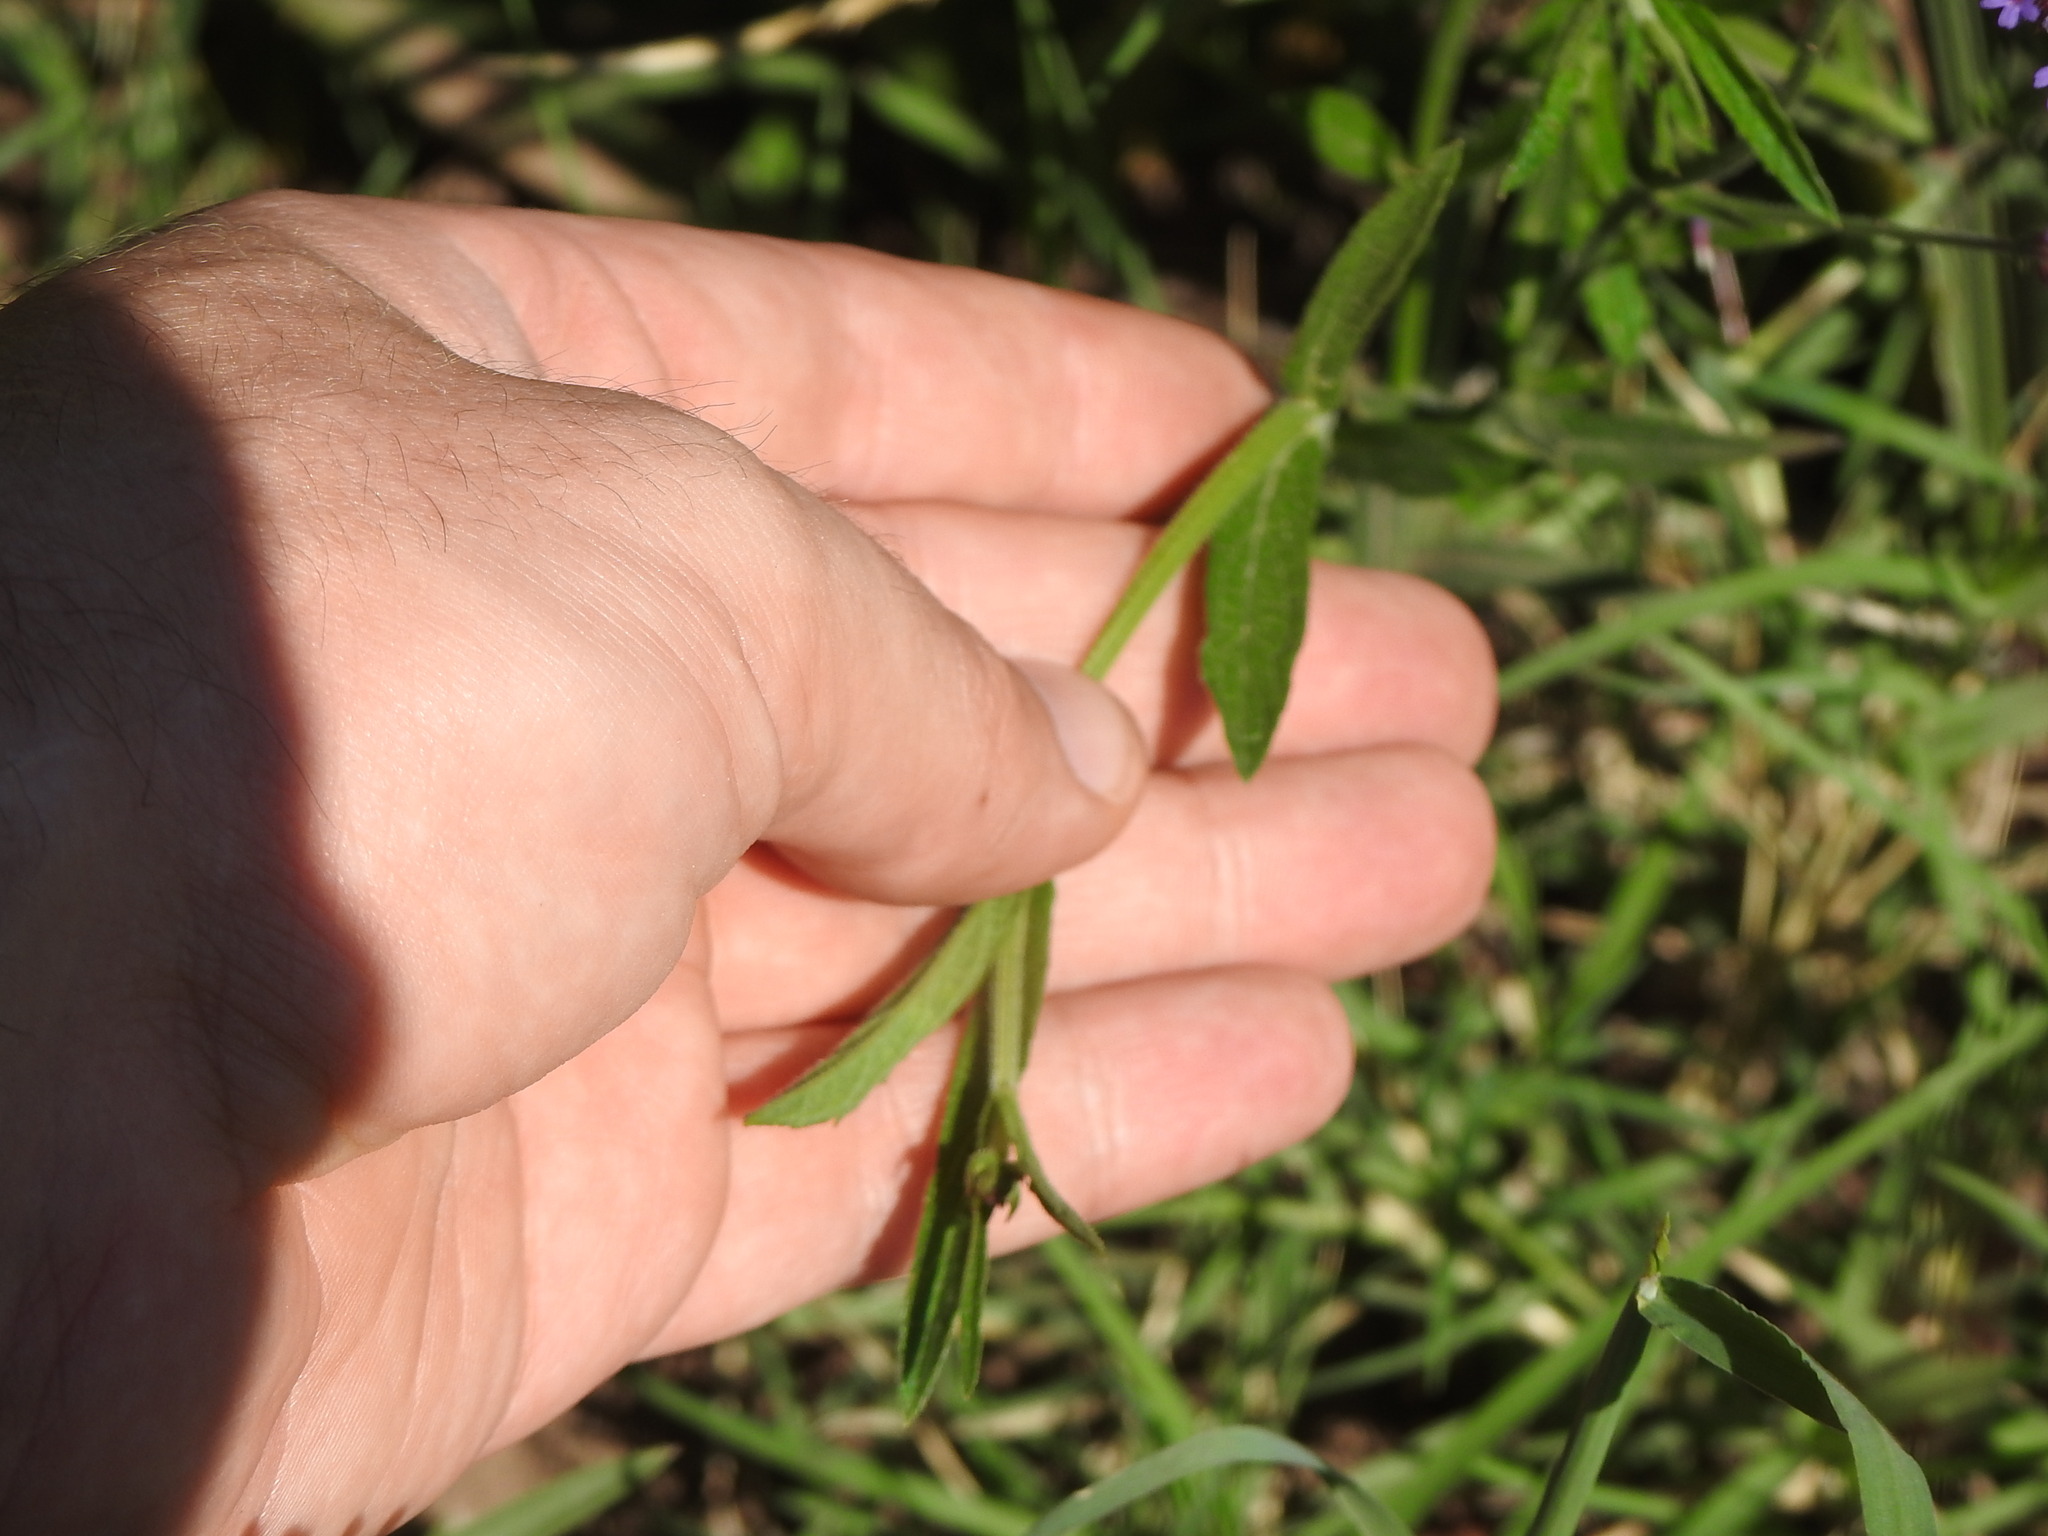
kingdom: Plantae
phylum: Tracheophyta
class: Magnoliopsida
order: Boraginales
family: Heliotropiaceae
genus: Heliotropium
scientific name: Heliotropium amplexicaule
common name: Clasping heliotrope
